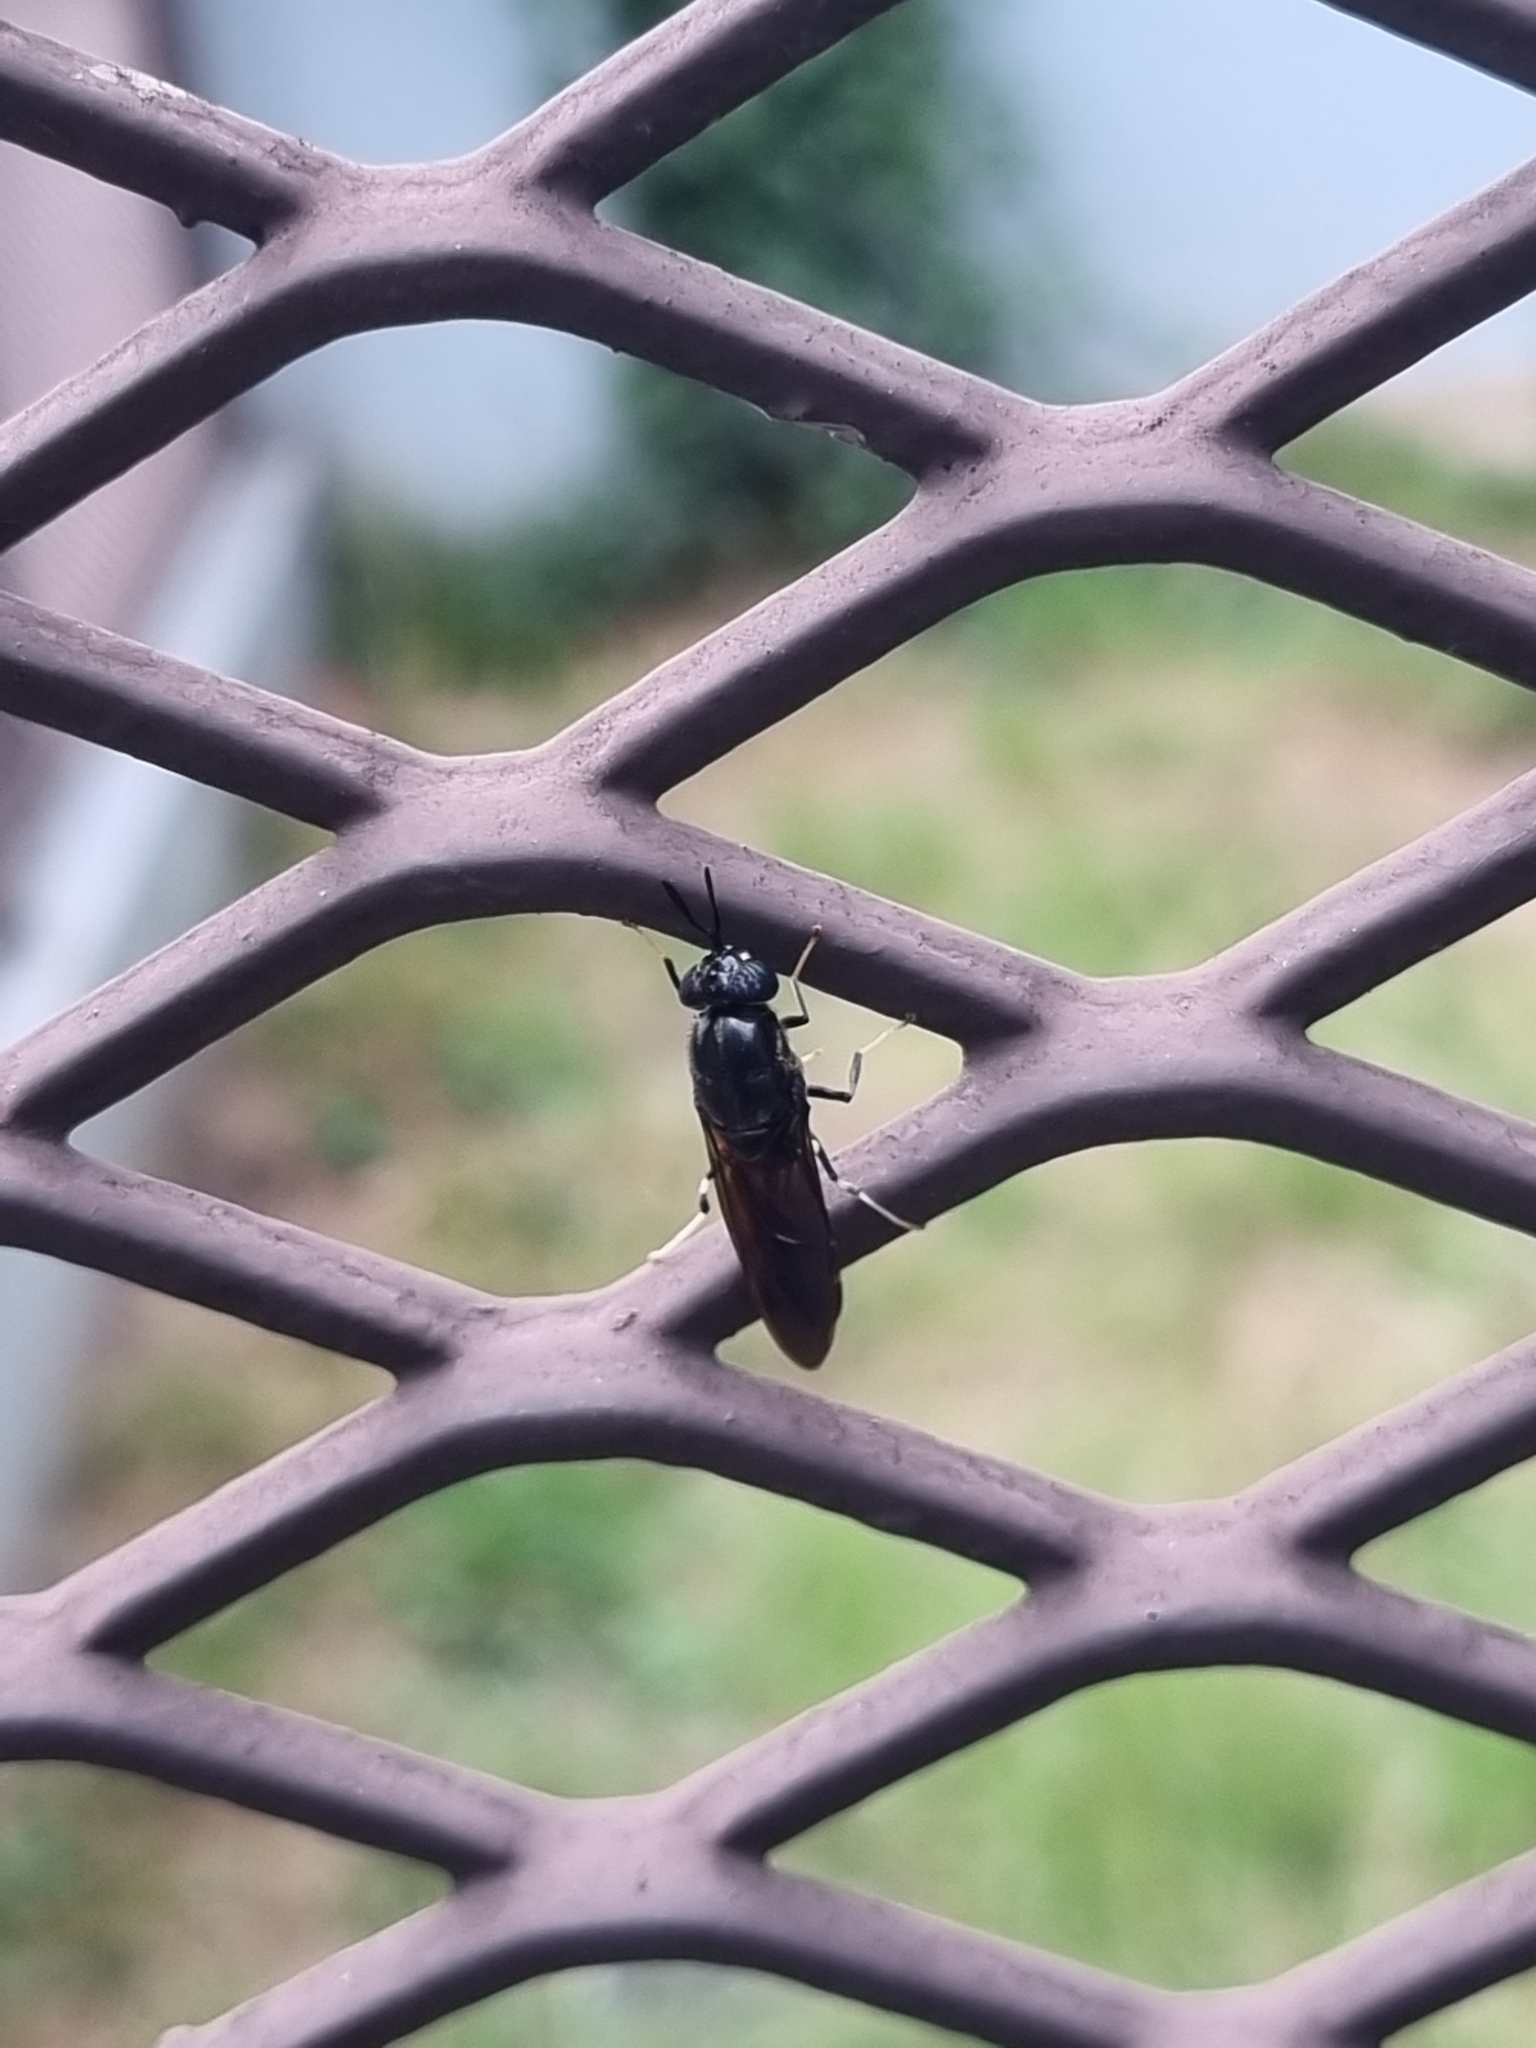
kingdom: Animalia
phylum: Arthropoda
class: Insecta
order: Diptera
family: Stratiomyidae
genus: Hermetia
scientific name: Hermetia illucens
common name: Black soldier fly
